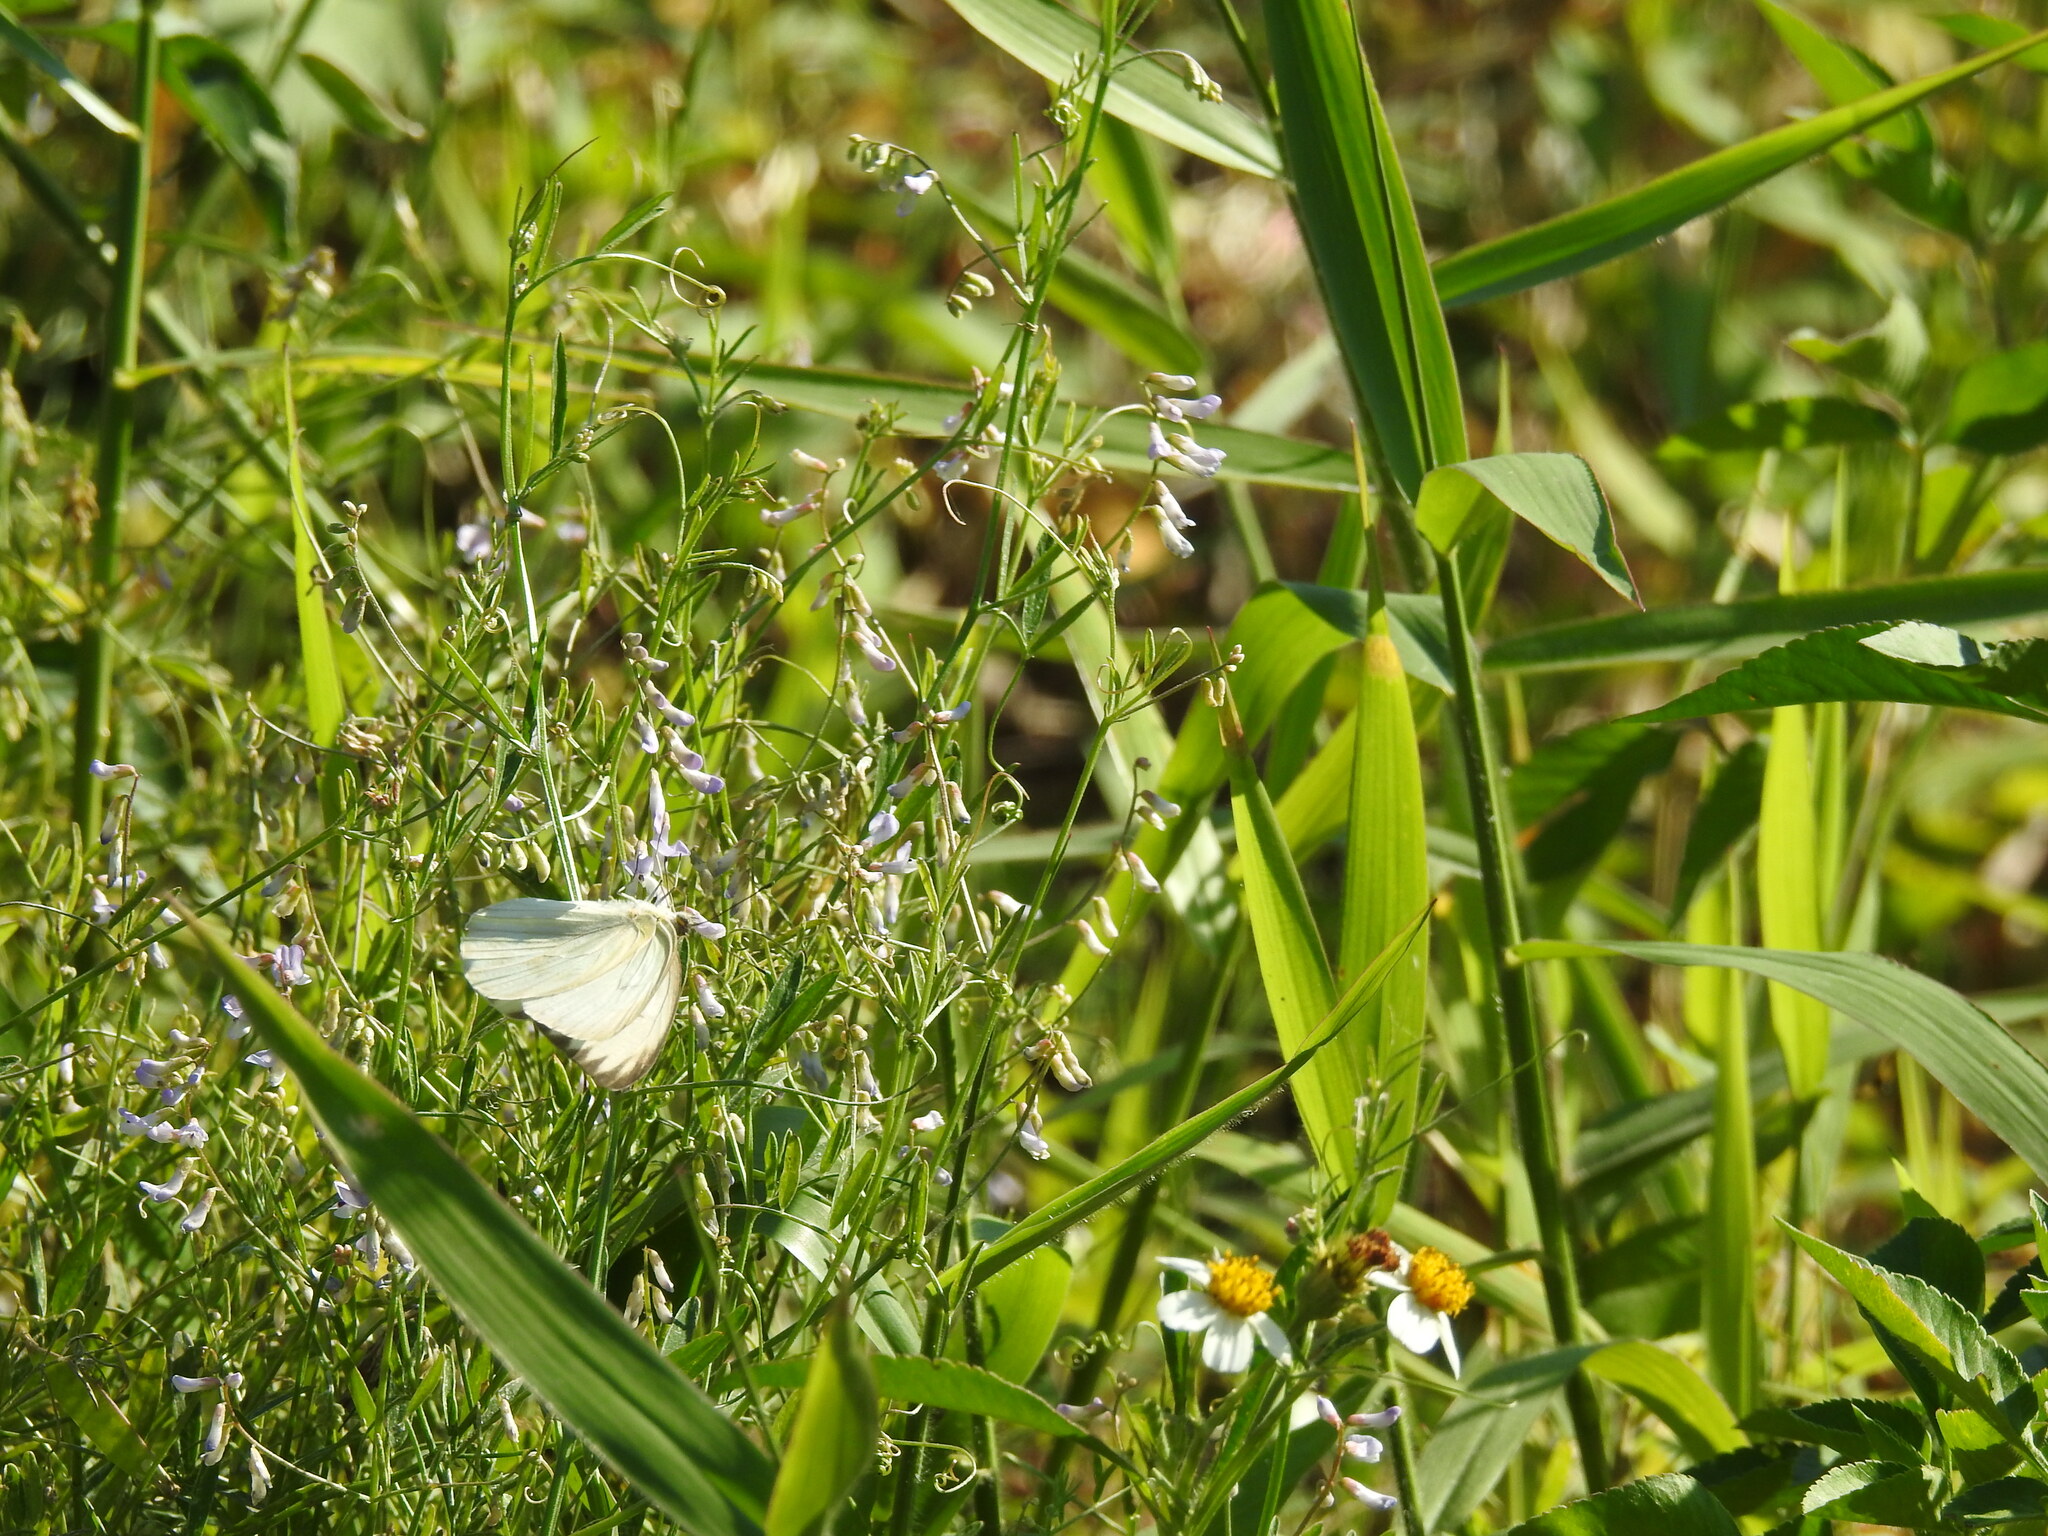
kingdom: Animalia
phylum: Arthropoda
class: Insecta
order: Lepidoptera
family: Pieridae
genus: Ascia
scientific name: Ascia monuste
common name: Great southern white
